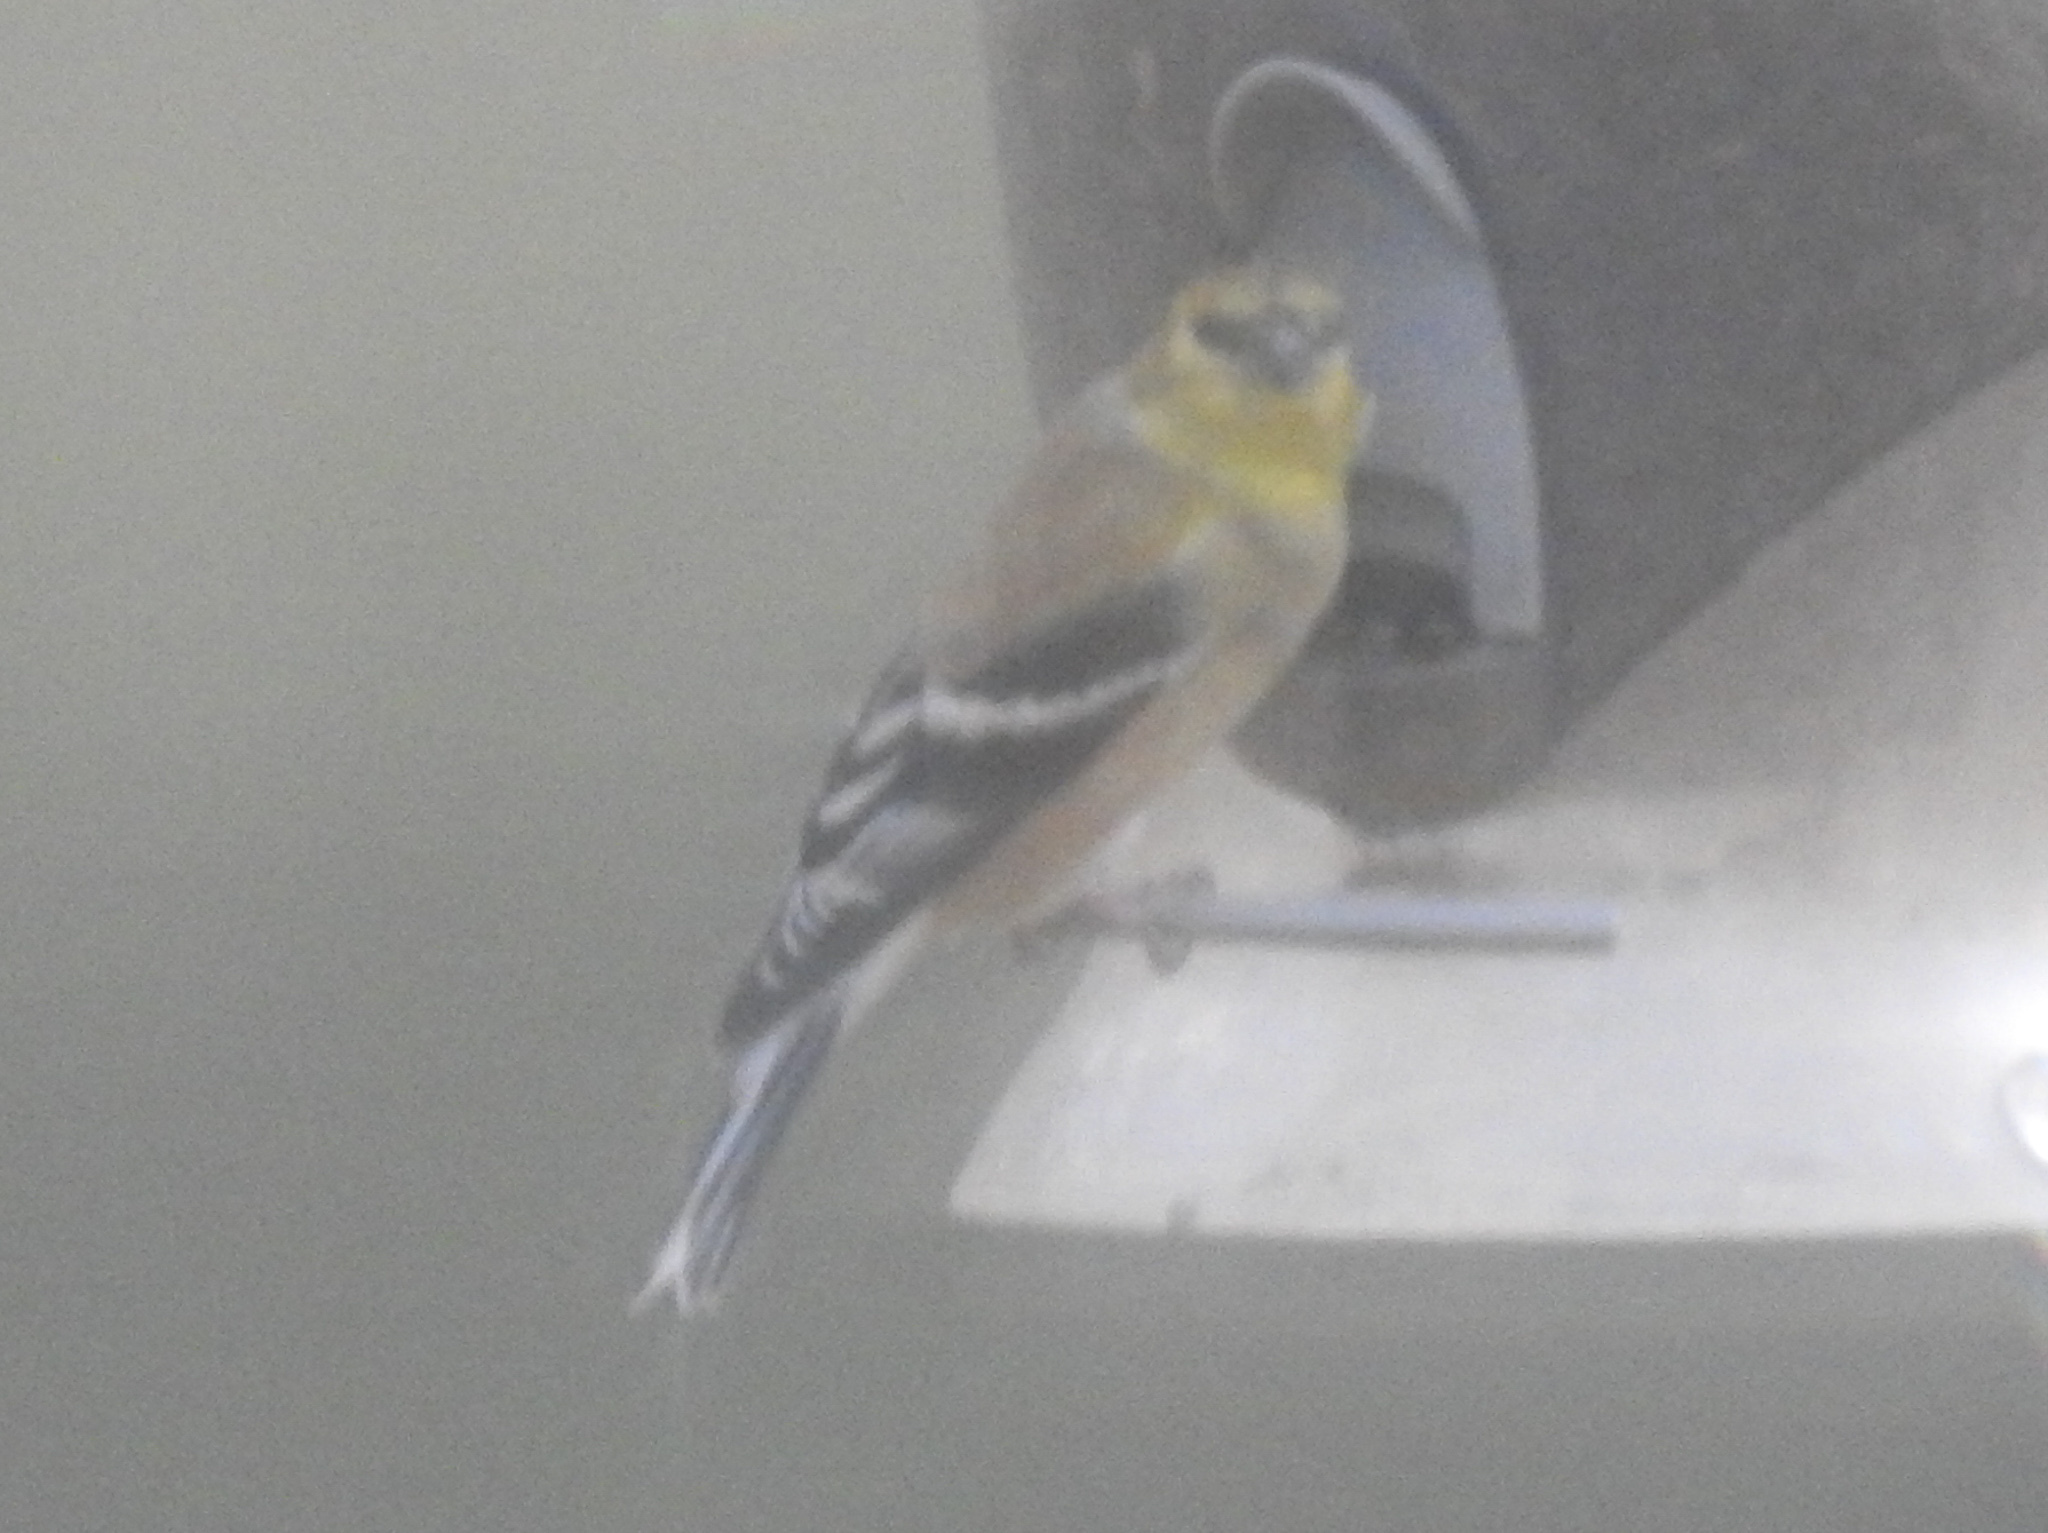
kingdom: Animalia
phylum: Chordata
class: Aves
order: Passeriformes
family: Fringillidae
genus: Spinus
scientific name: Spinus tristis
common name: American goldfinch
